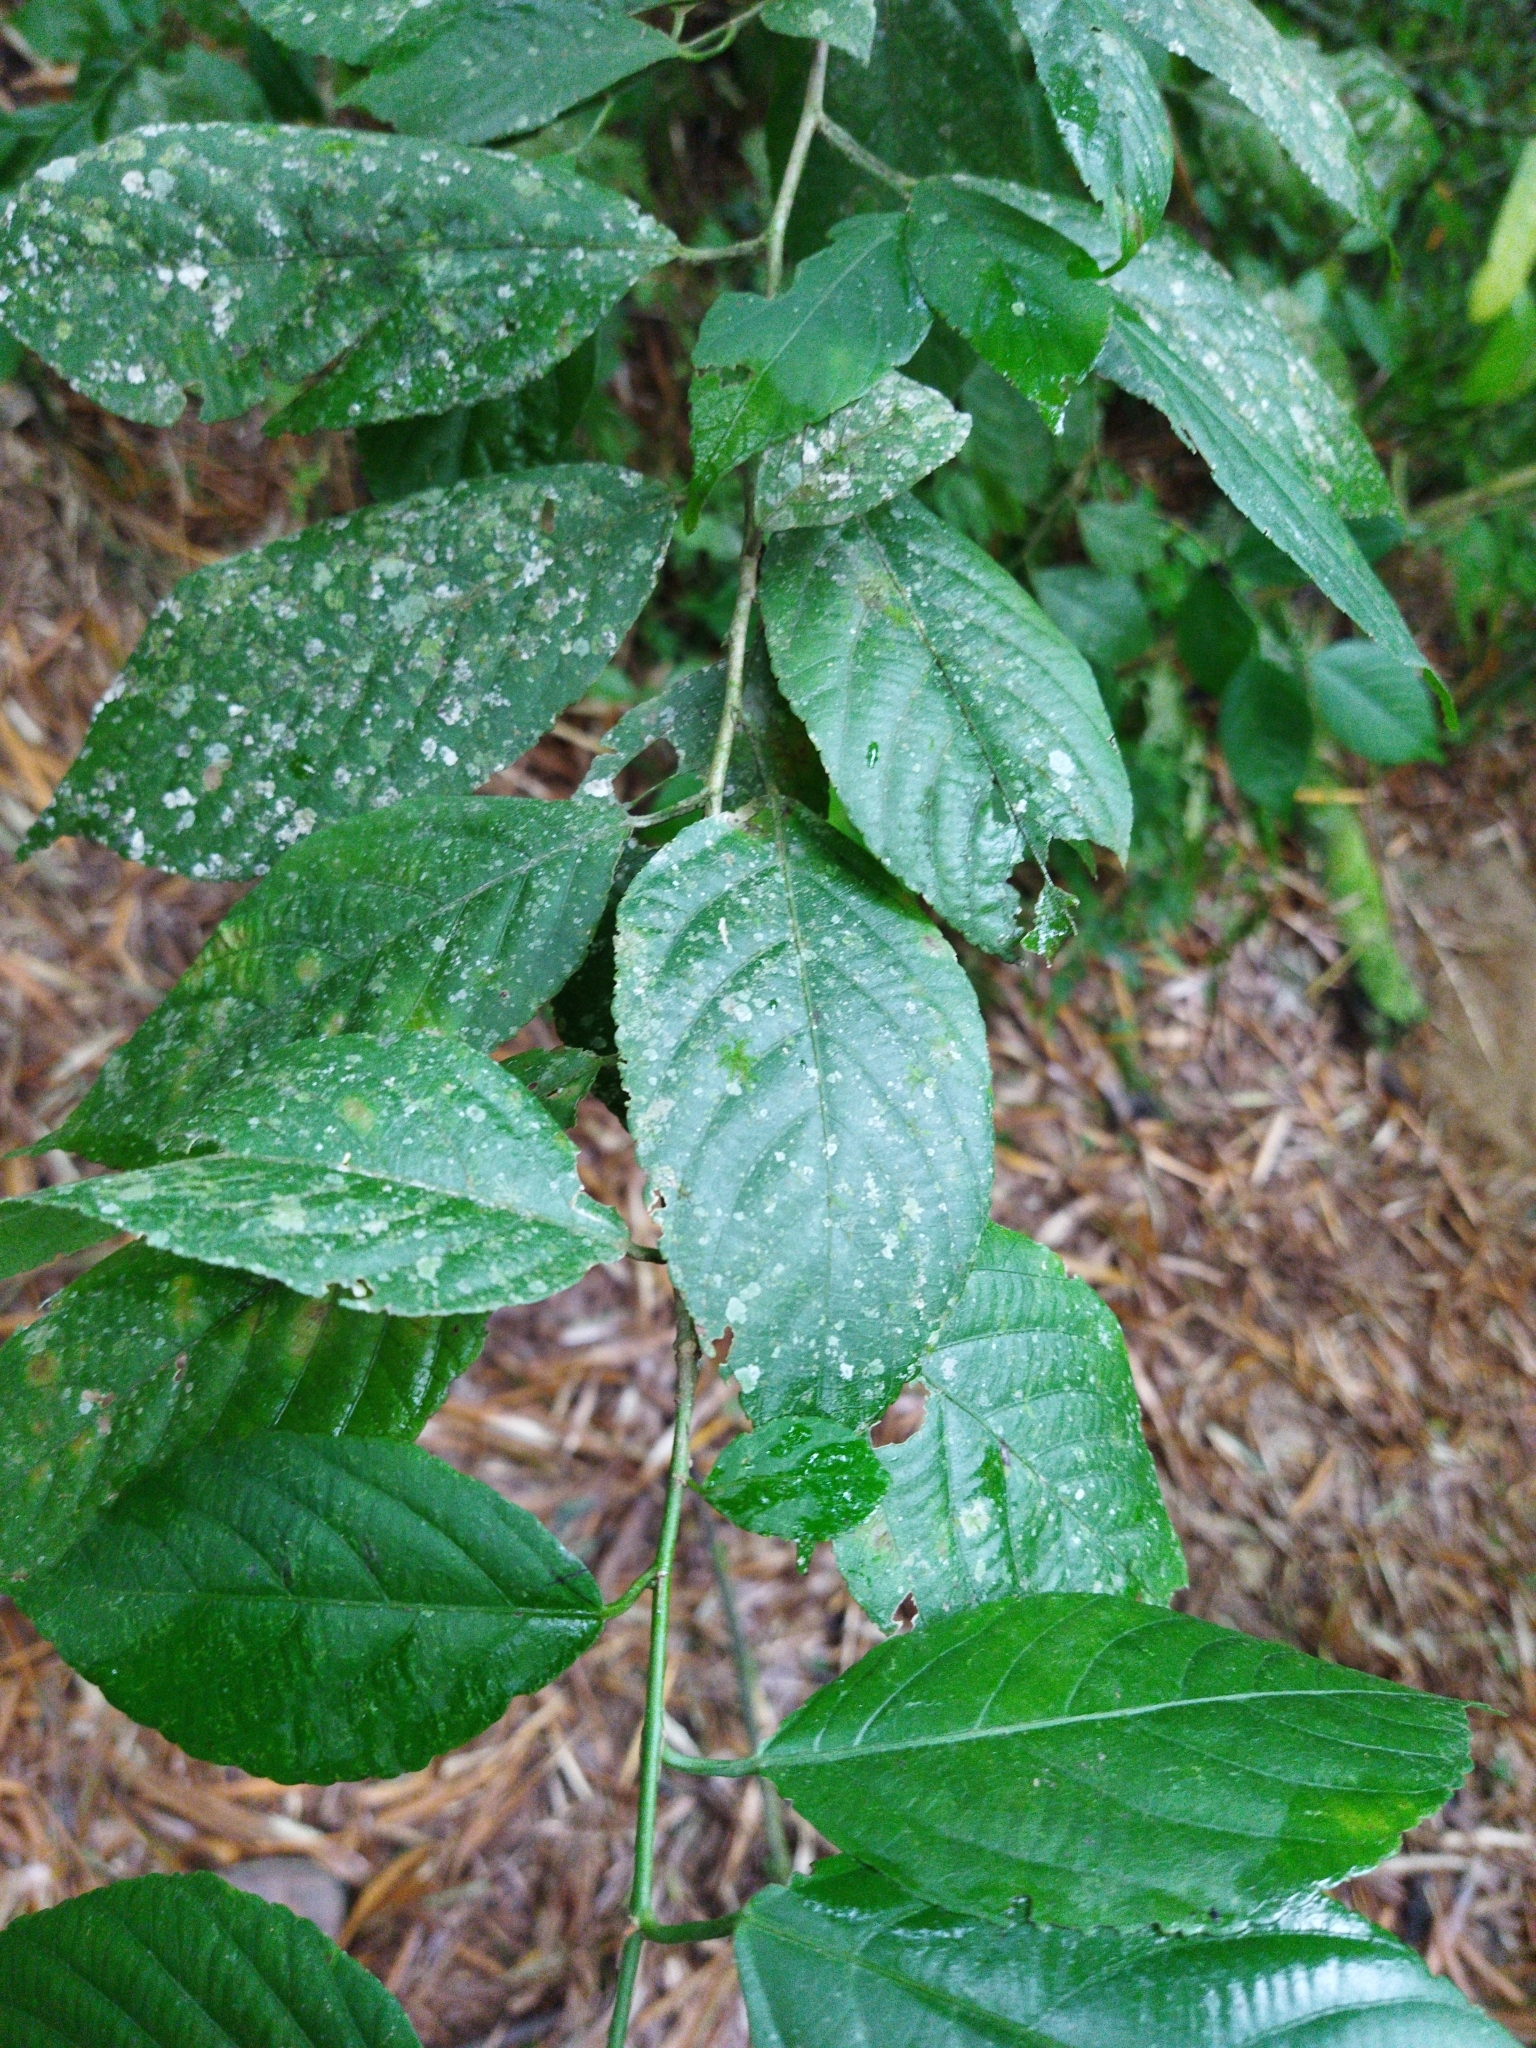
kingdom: Plantae
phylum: Tracheophyta
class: Magnoliopsida
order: Malpighiales
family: Euphorbiaceae
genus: Acalypha
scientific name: Acalypha diversifolia
